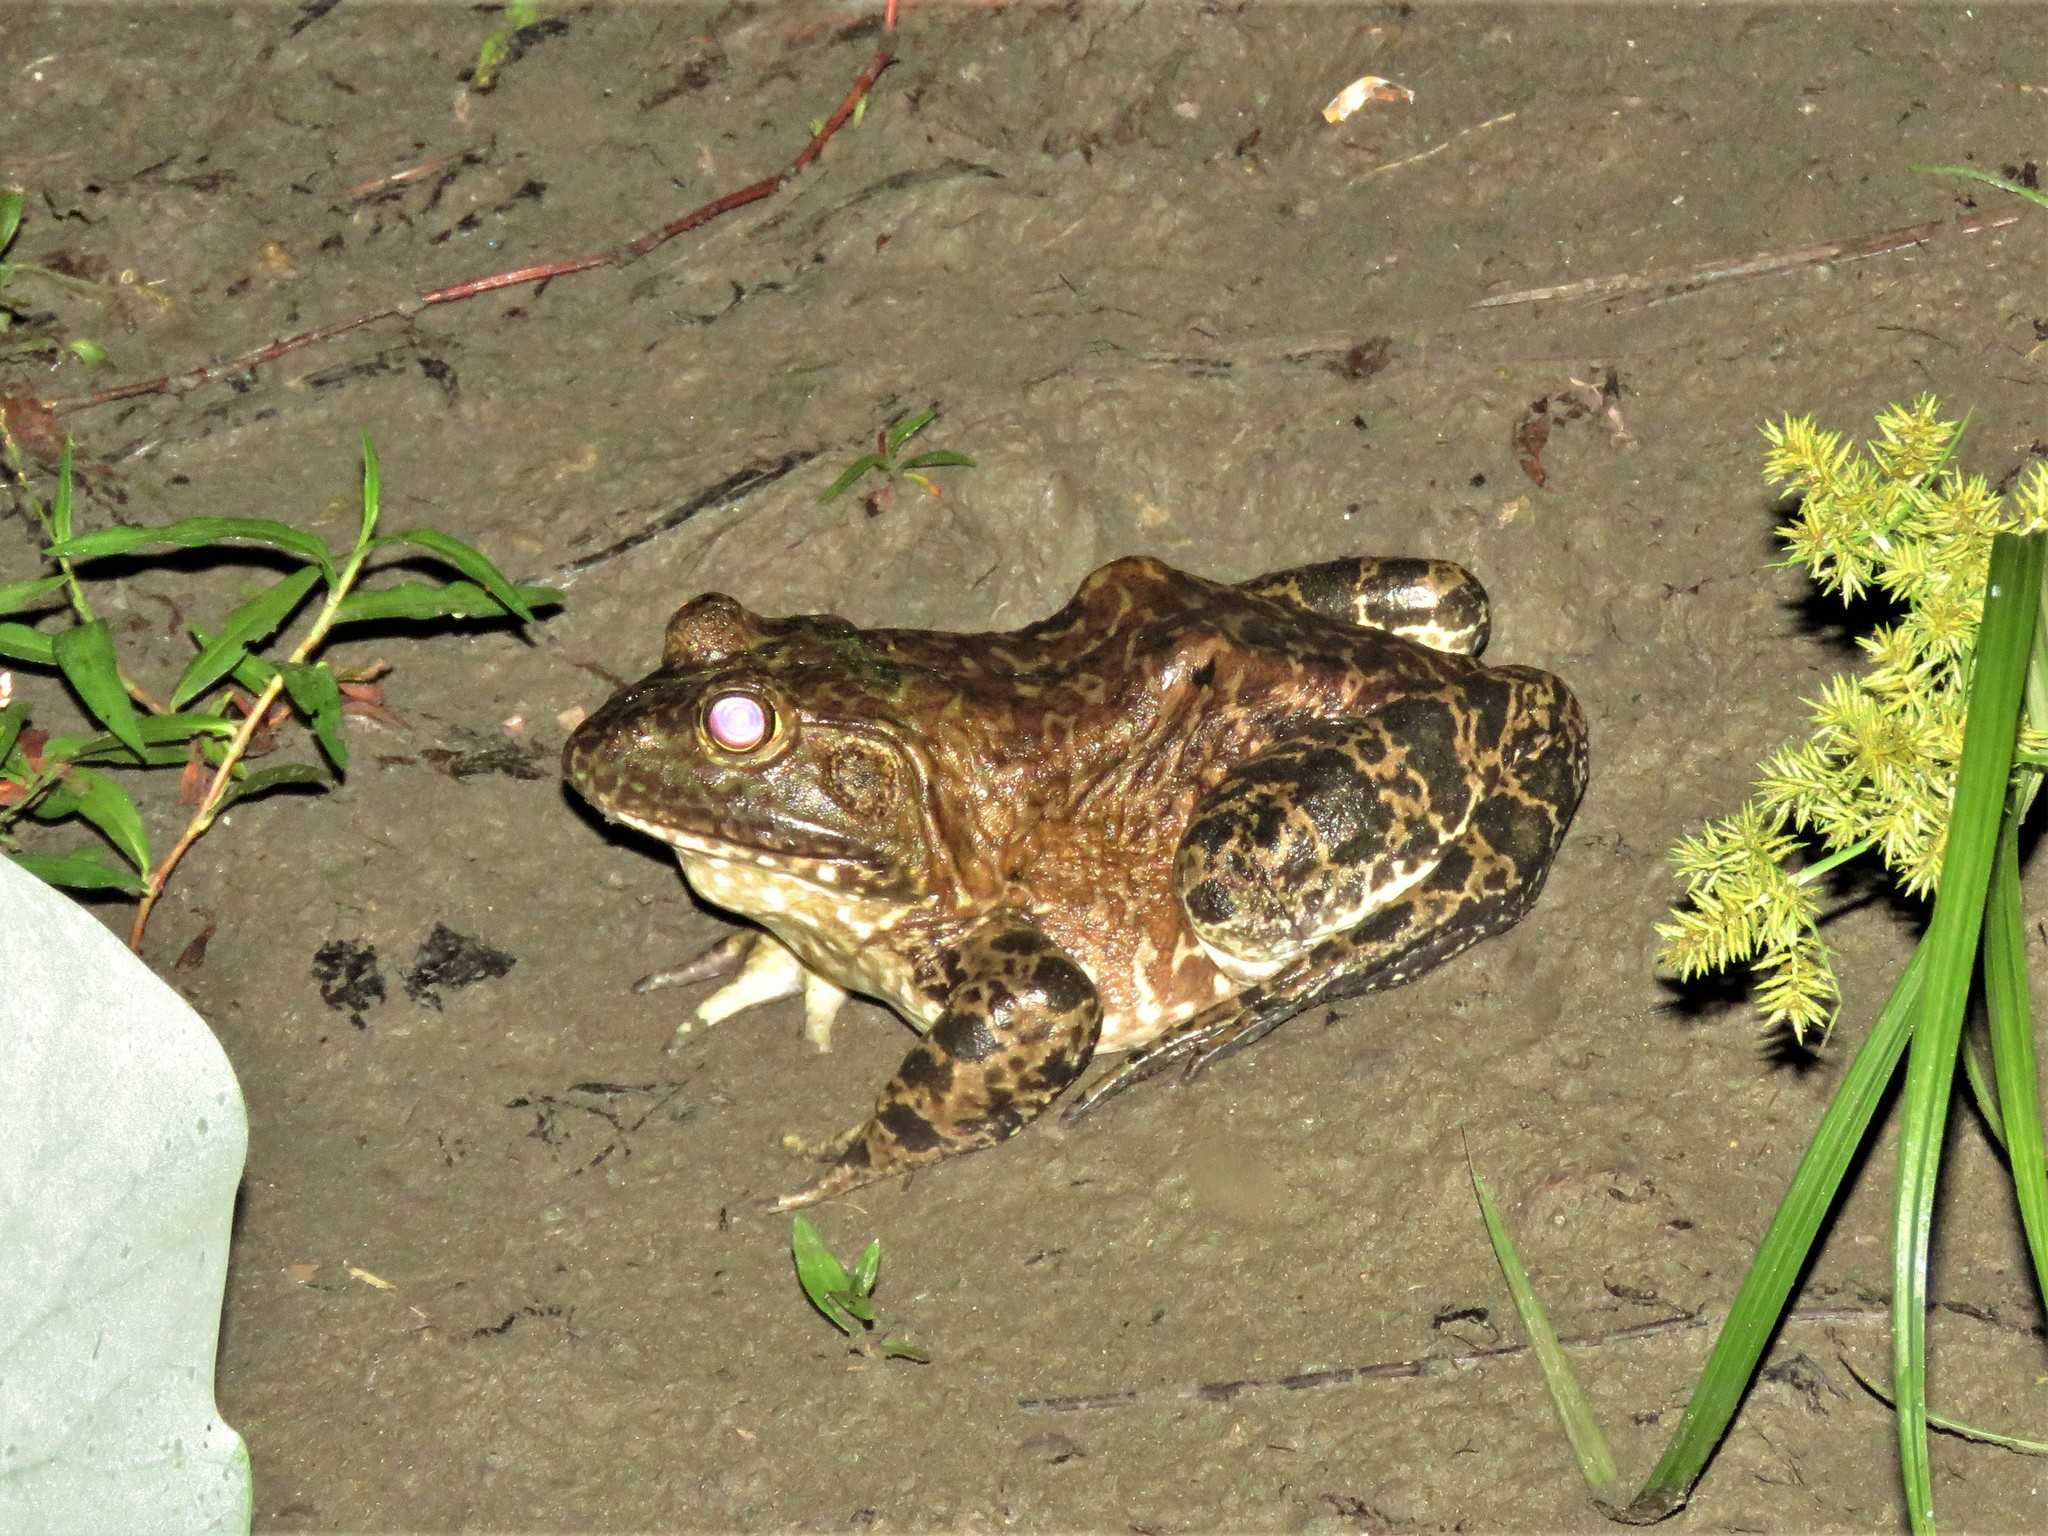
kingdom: Animalia
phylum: Chordata
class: Amphibia
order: Anura
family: Ranidae
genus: Lithobates
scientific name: Lithobates catesbeianus
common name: American bullfrog
